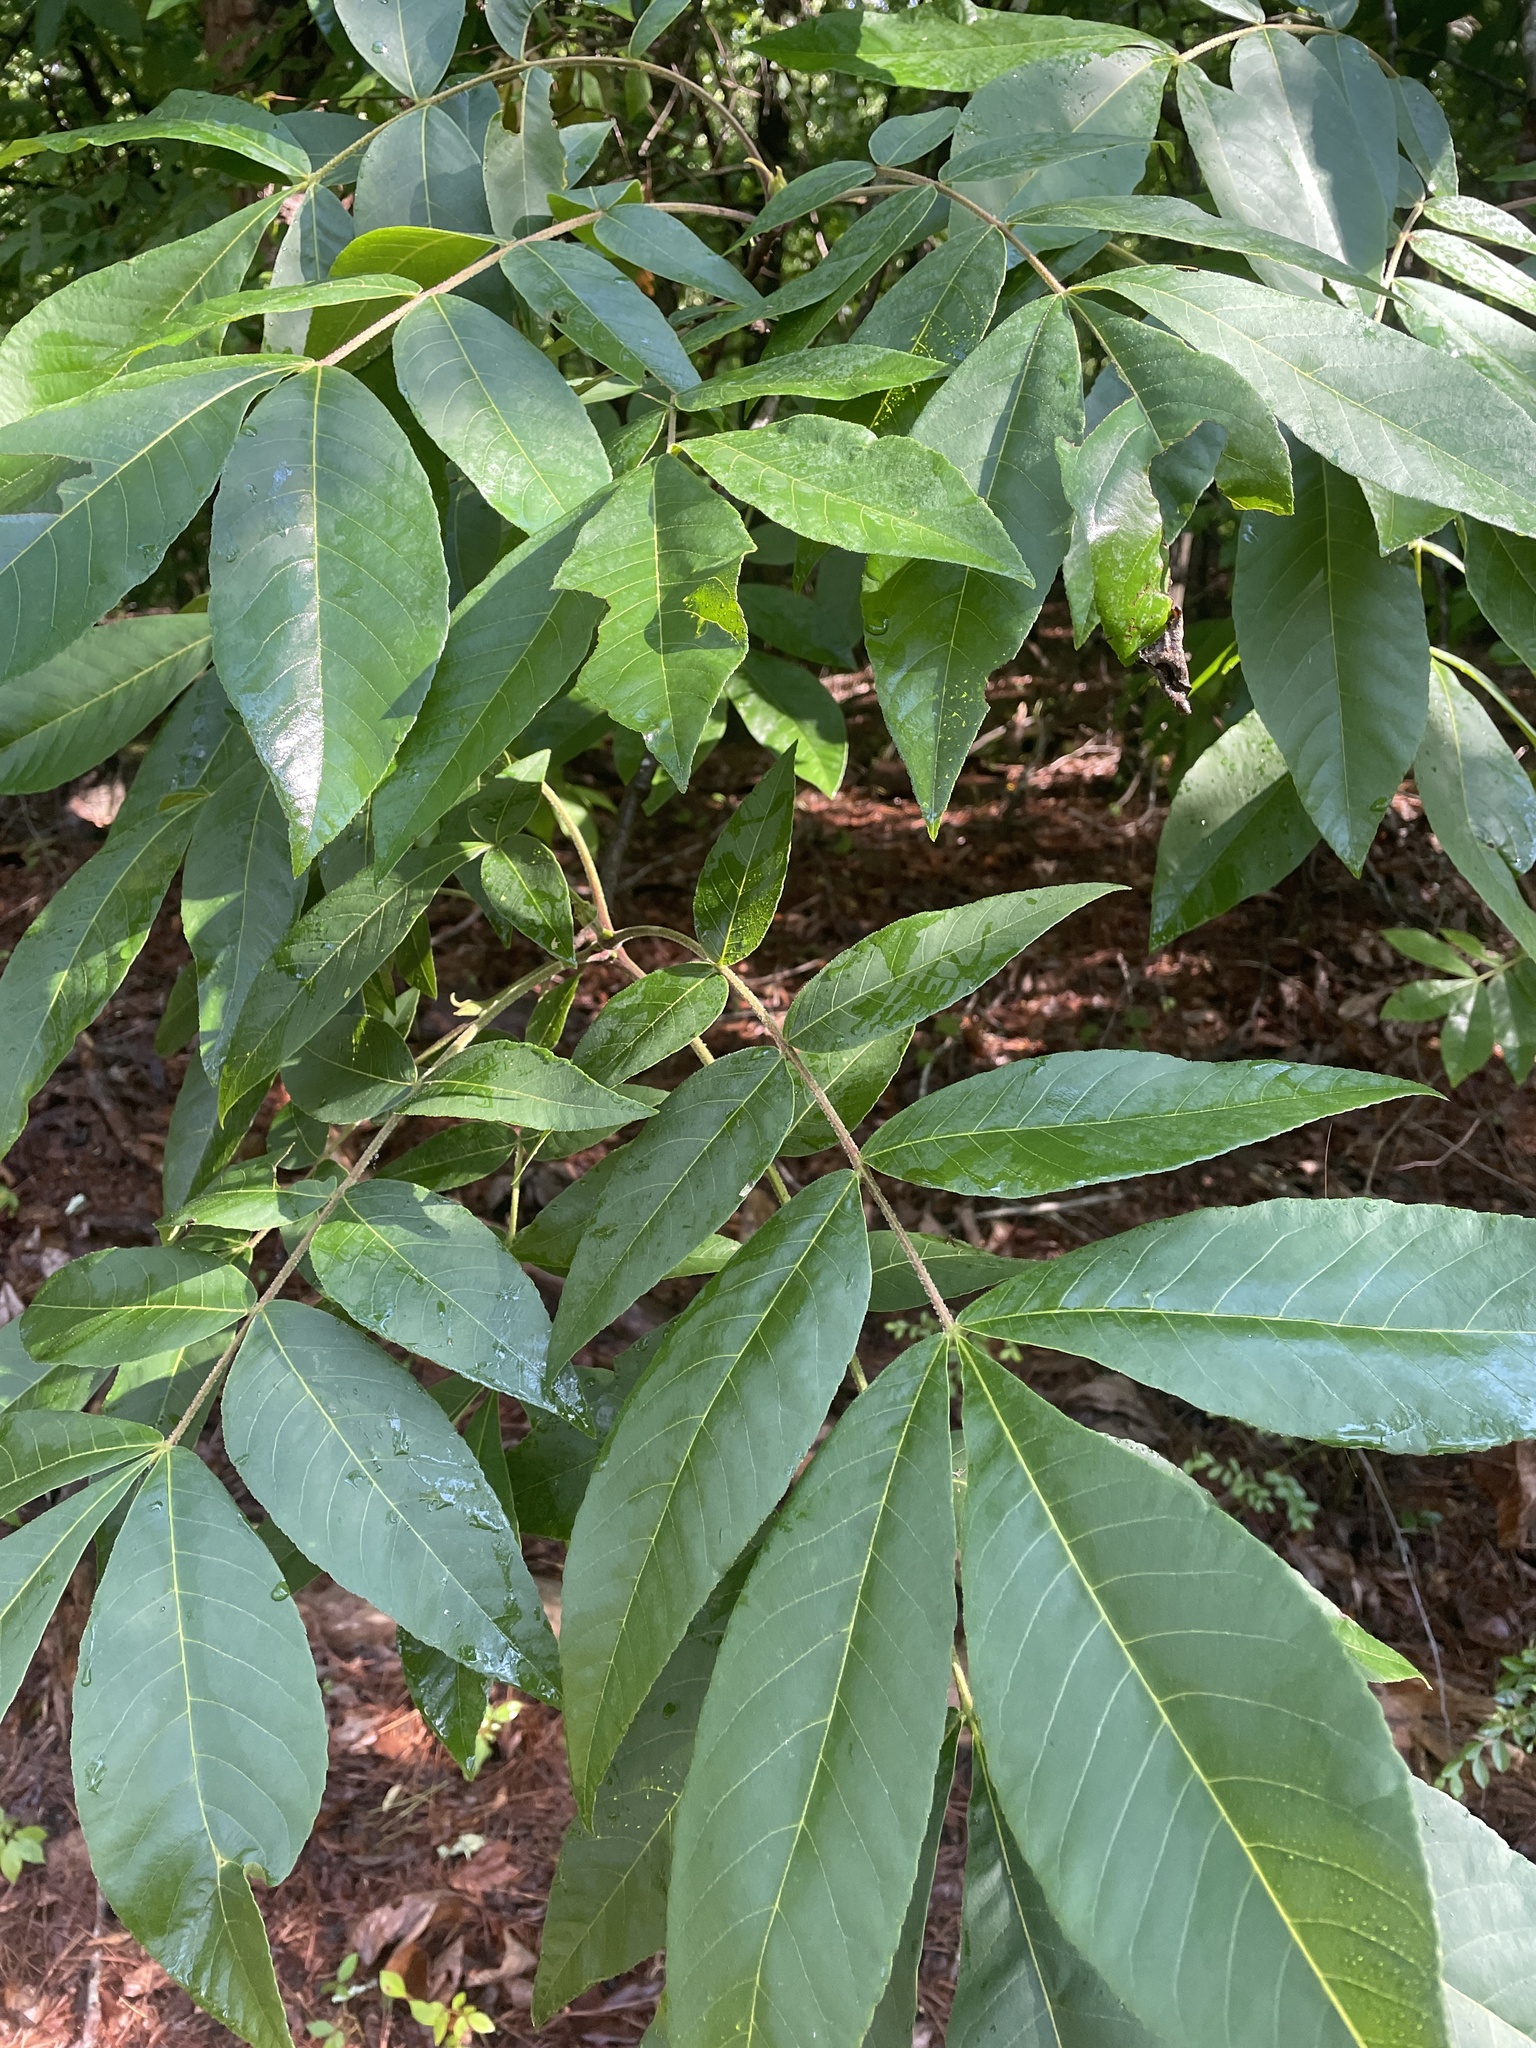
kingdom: Animalia
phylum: Arthropoda
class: Insecta
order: Diptera
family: Cecidomyiidae
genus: Caryomyia
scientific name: Caryomyia albipilosa
